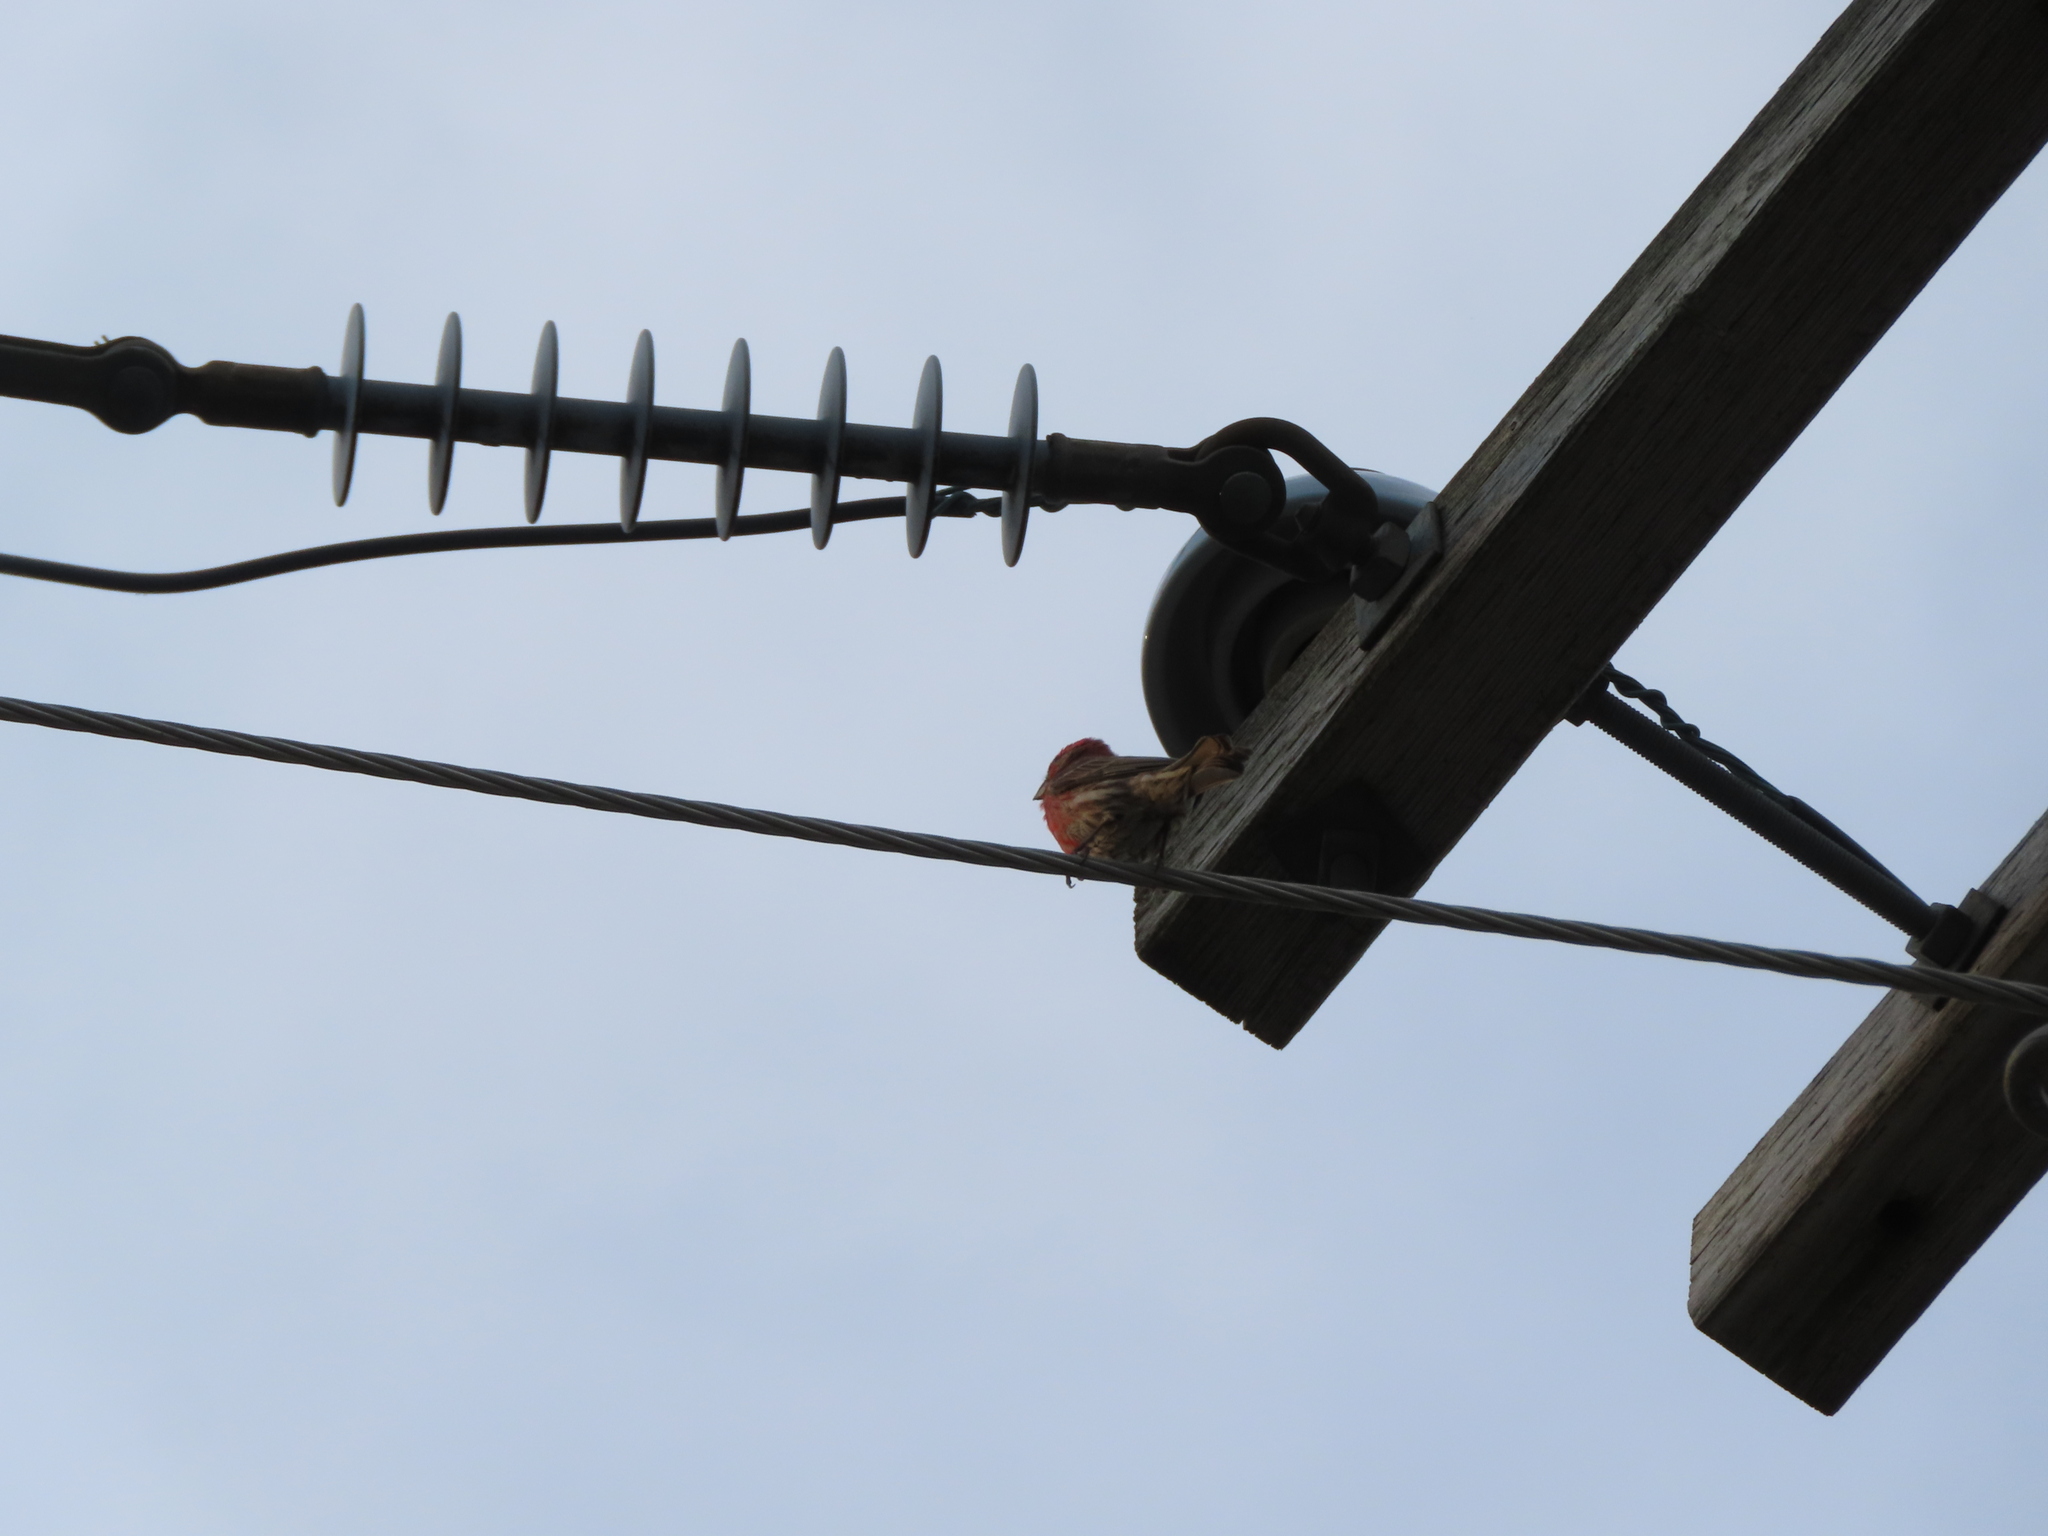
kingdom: Animalia
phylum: Chordata
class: Aves
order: Passeriformes
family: Fringillidae
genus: Haemorhous
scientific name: Haemorhous mexicanus
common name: House finch
